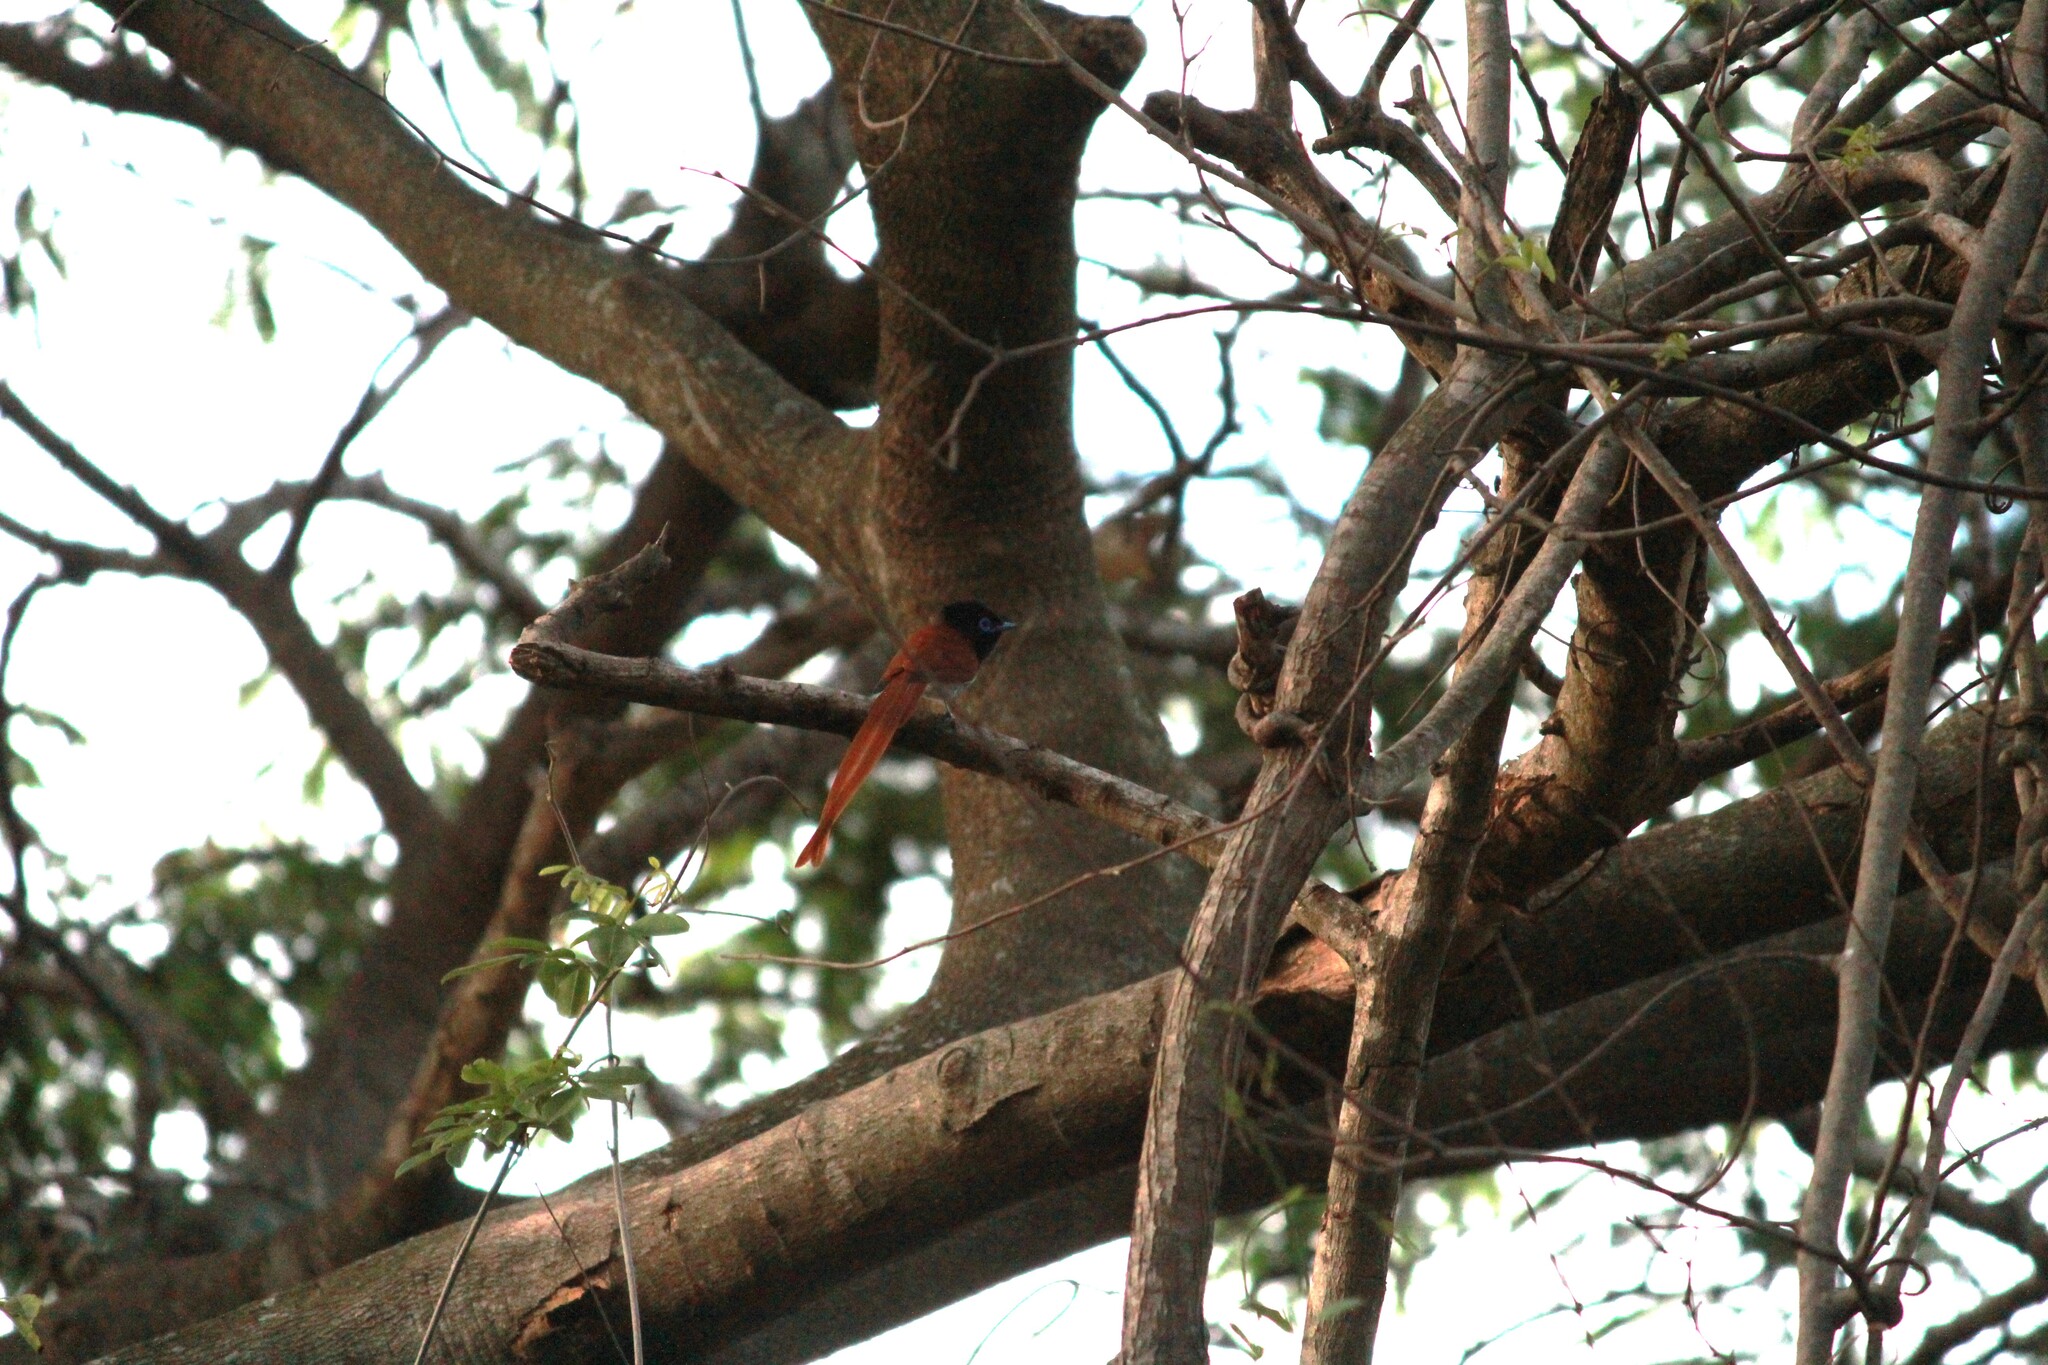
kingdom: Animalia
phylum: Chordata
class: Aves
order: Passeriformes
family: Monarchidae
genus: Terpsiphone
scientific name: Terpsiphone viridis
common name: African paradise flycatcher
